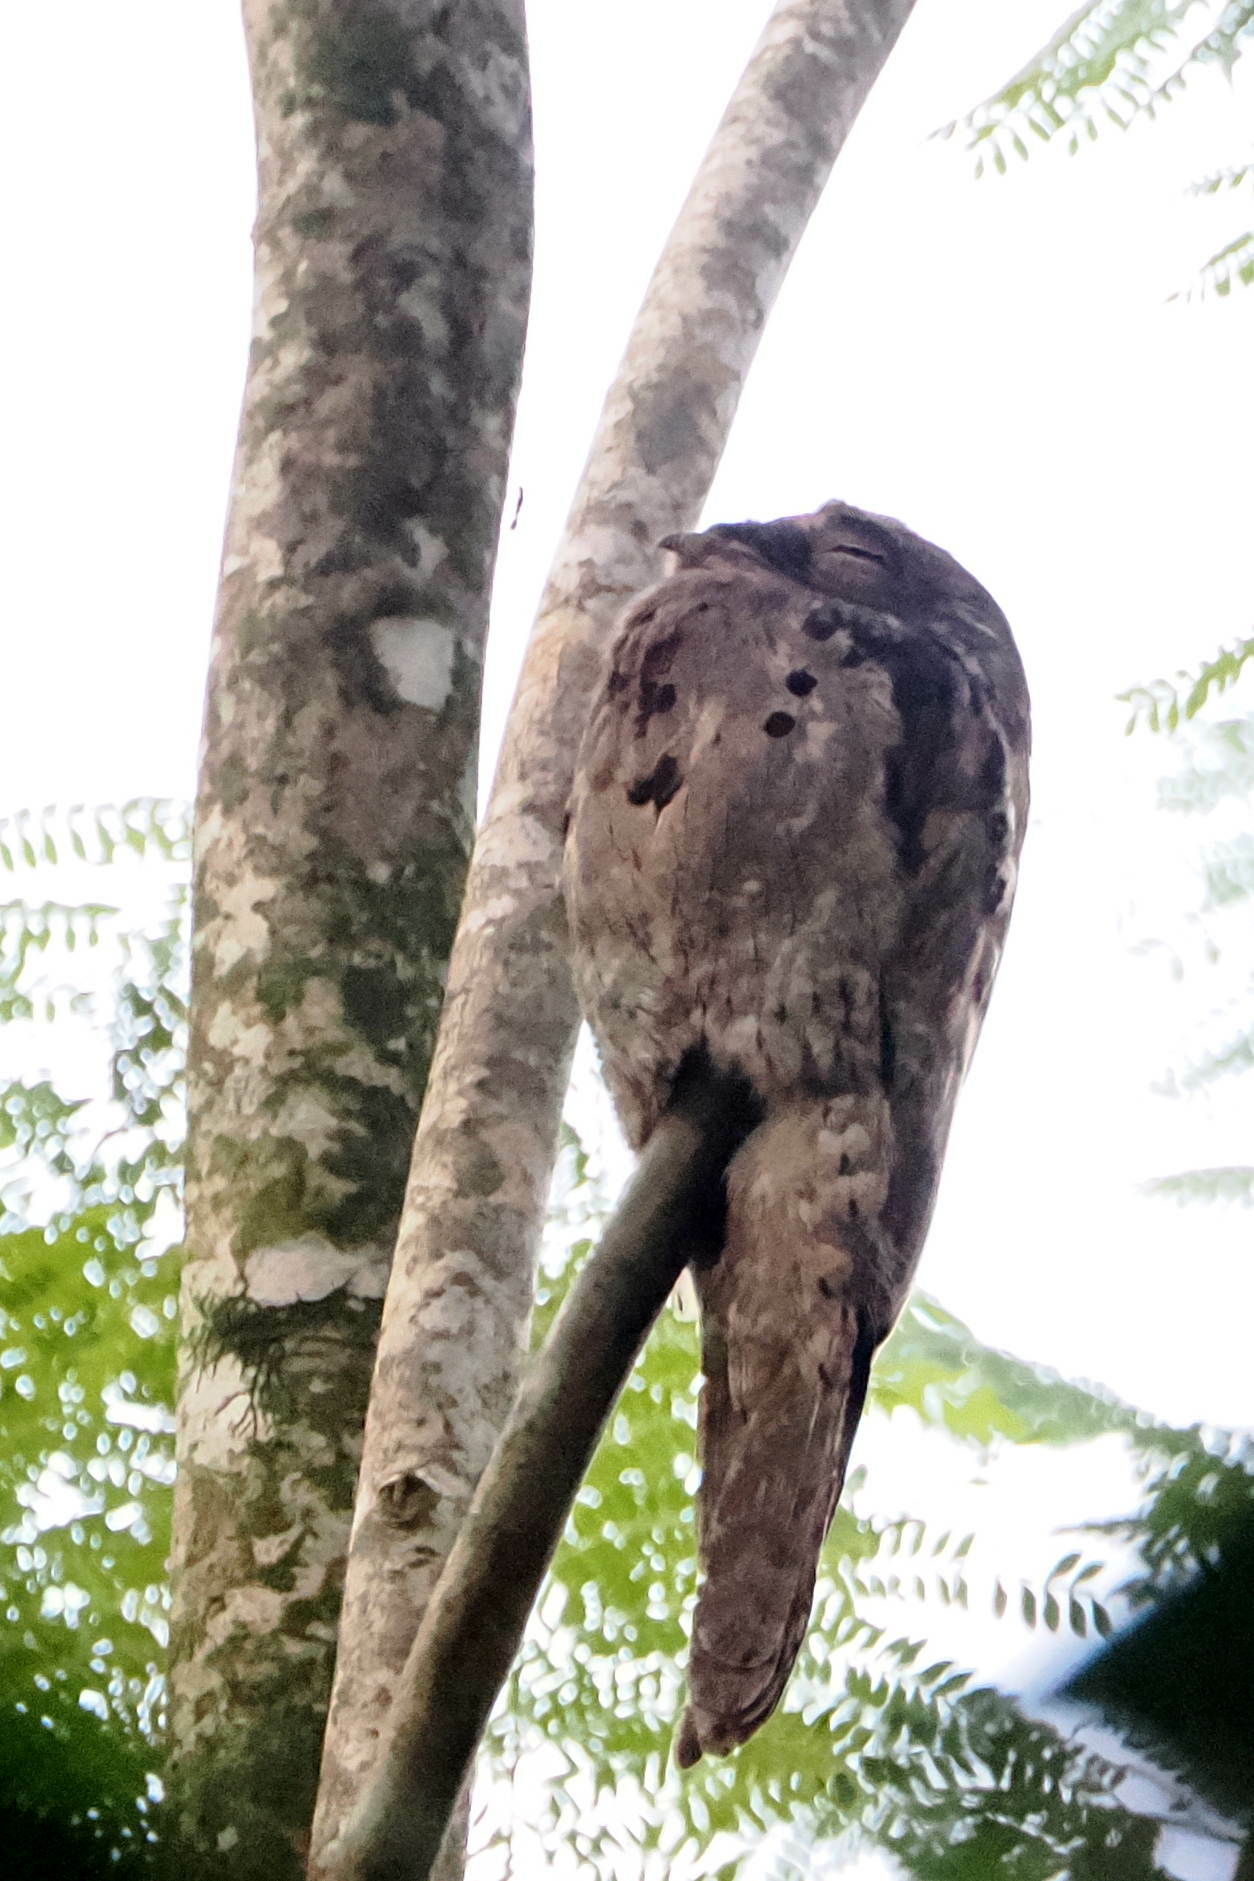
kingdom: Animalia
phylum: Chordata
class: Aves
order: Nyctibiiformes
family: Nyctibiidae
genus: Nyctibius
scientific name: Nyctibius griseus
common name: Common potoo
